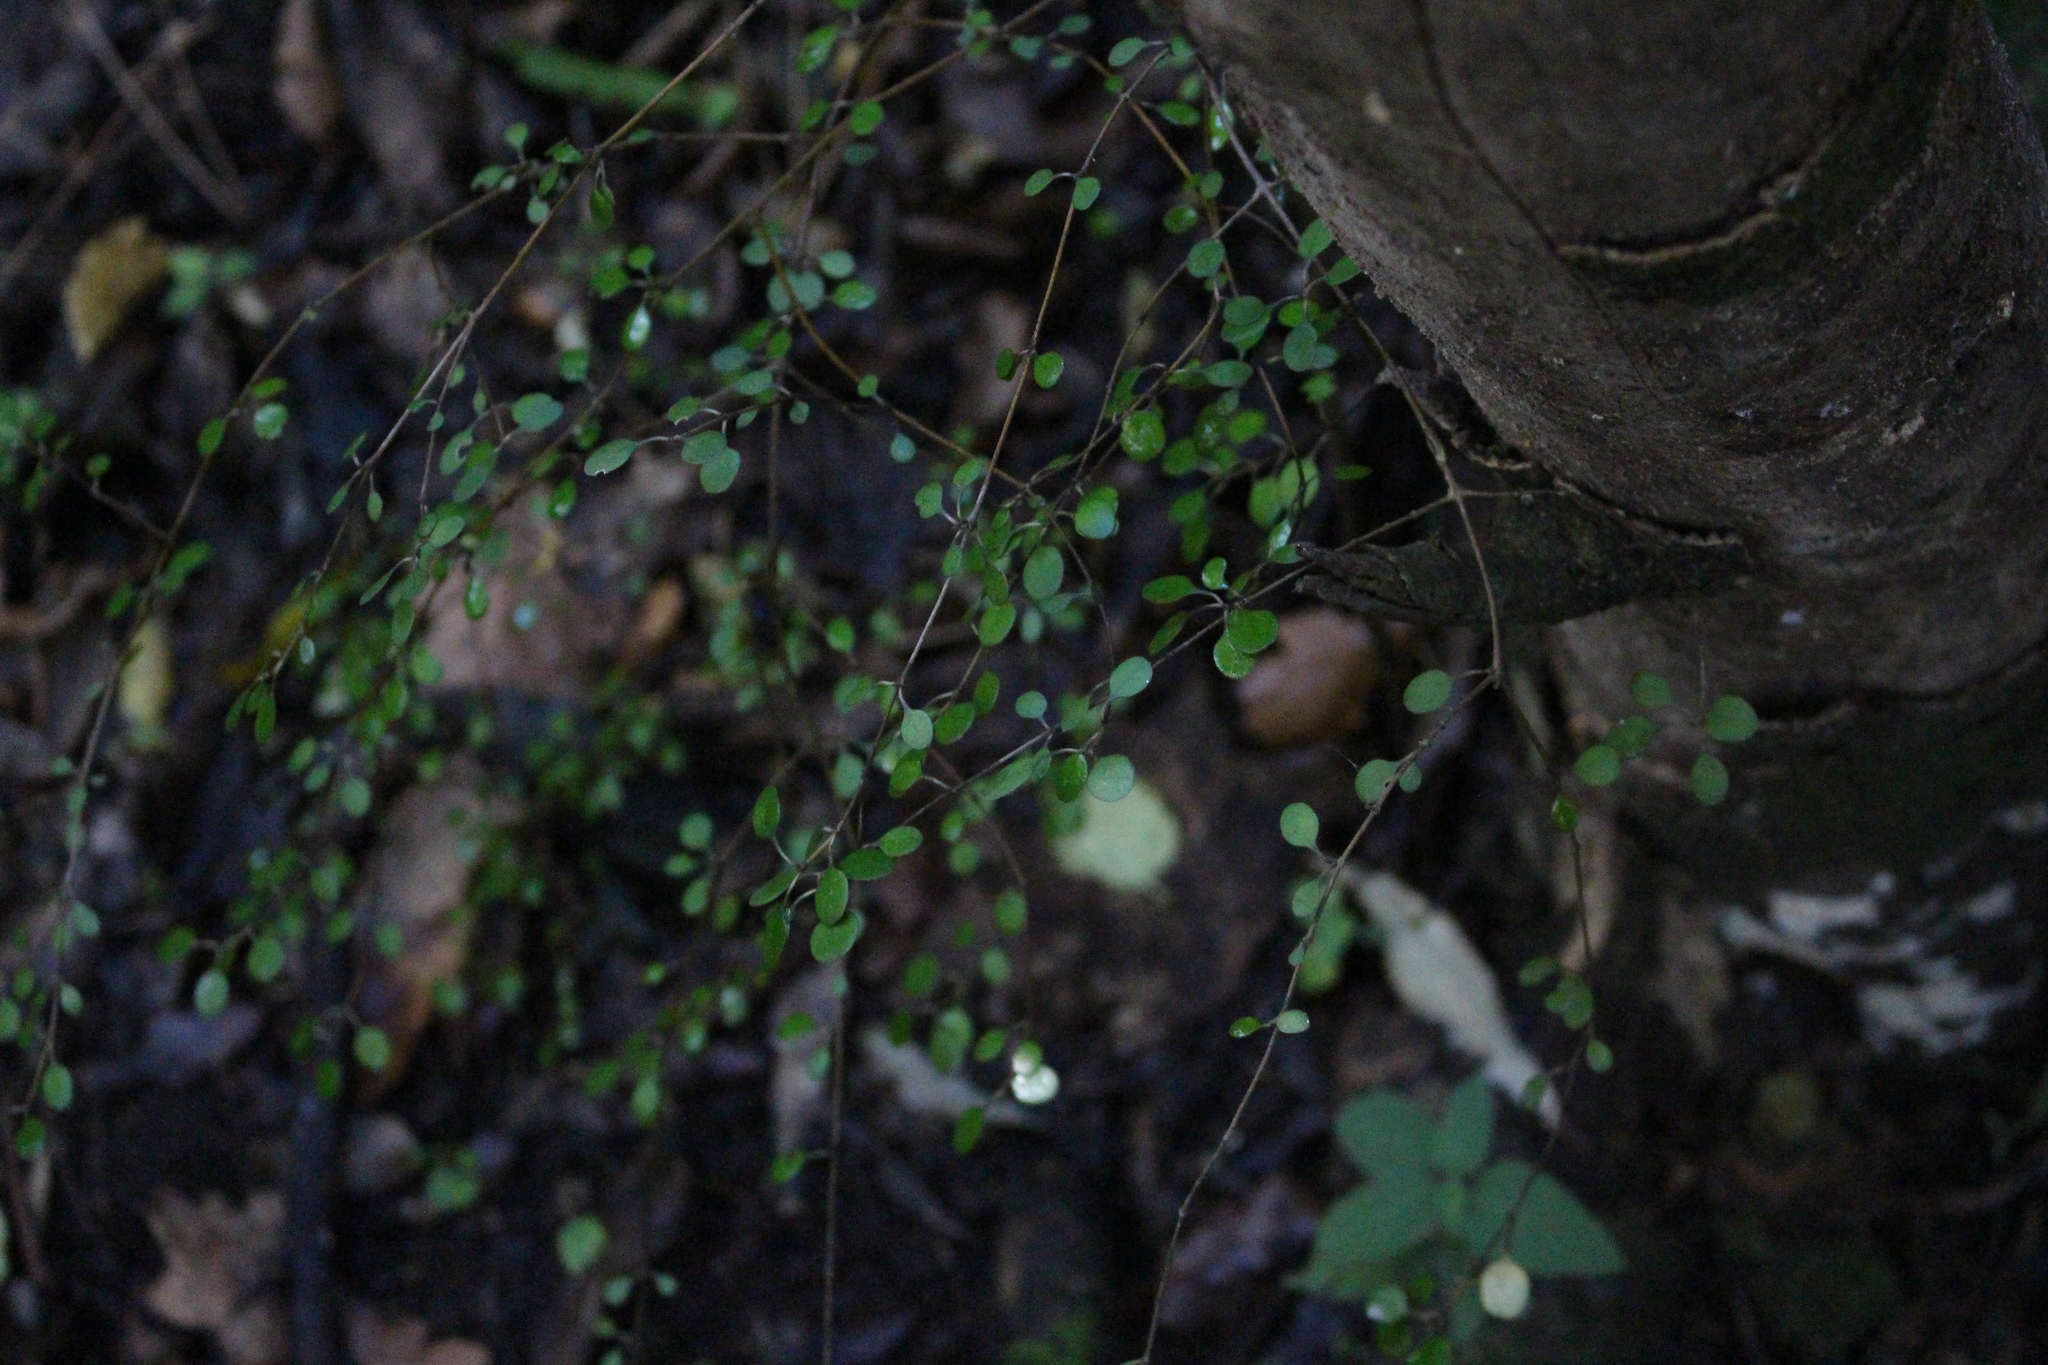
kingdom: Plantae
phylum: Tracheophyta
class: Magnoliopsida
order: Gentianales
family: Rubiaceae
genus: Coprosma
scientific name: Coprosma crassifolia
